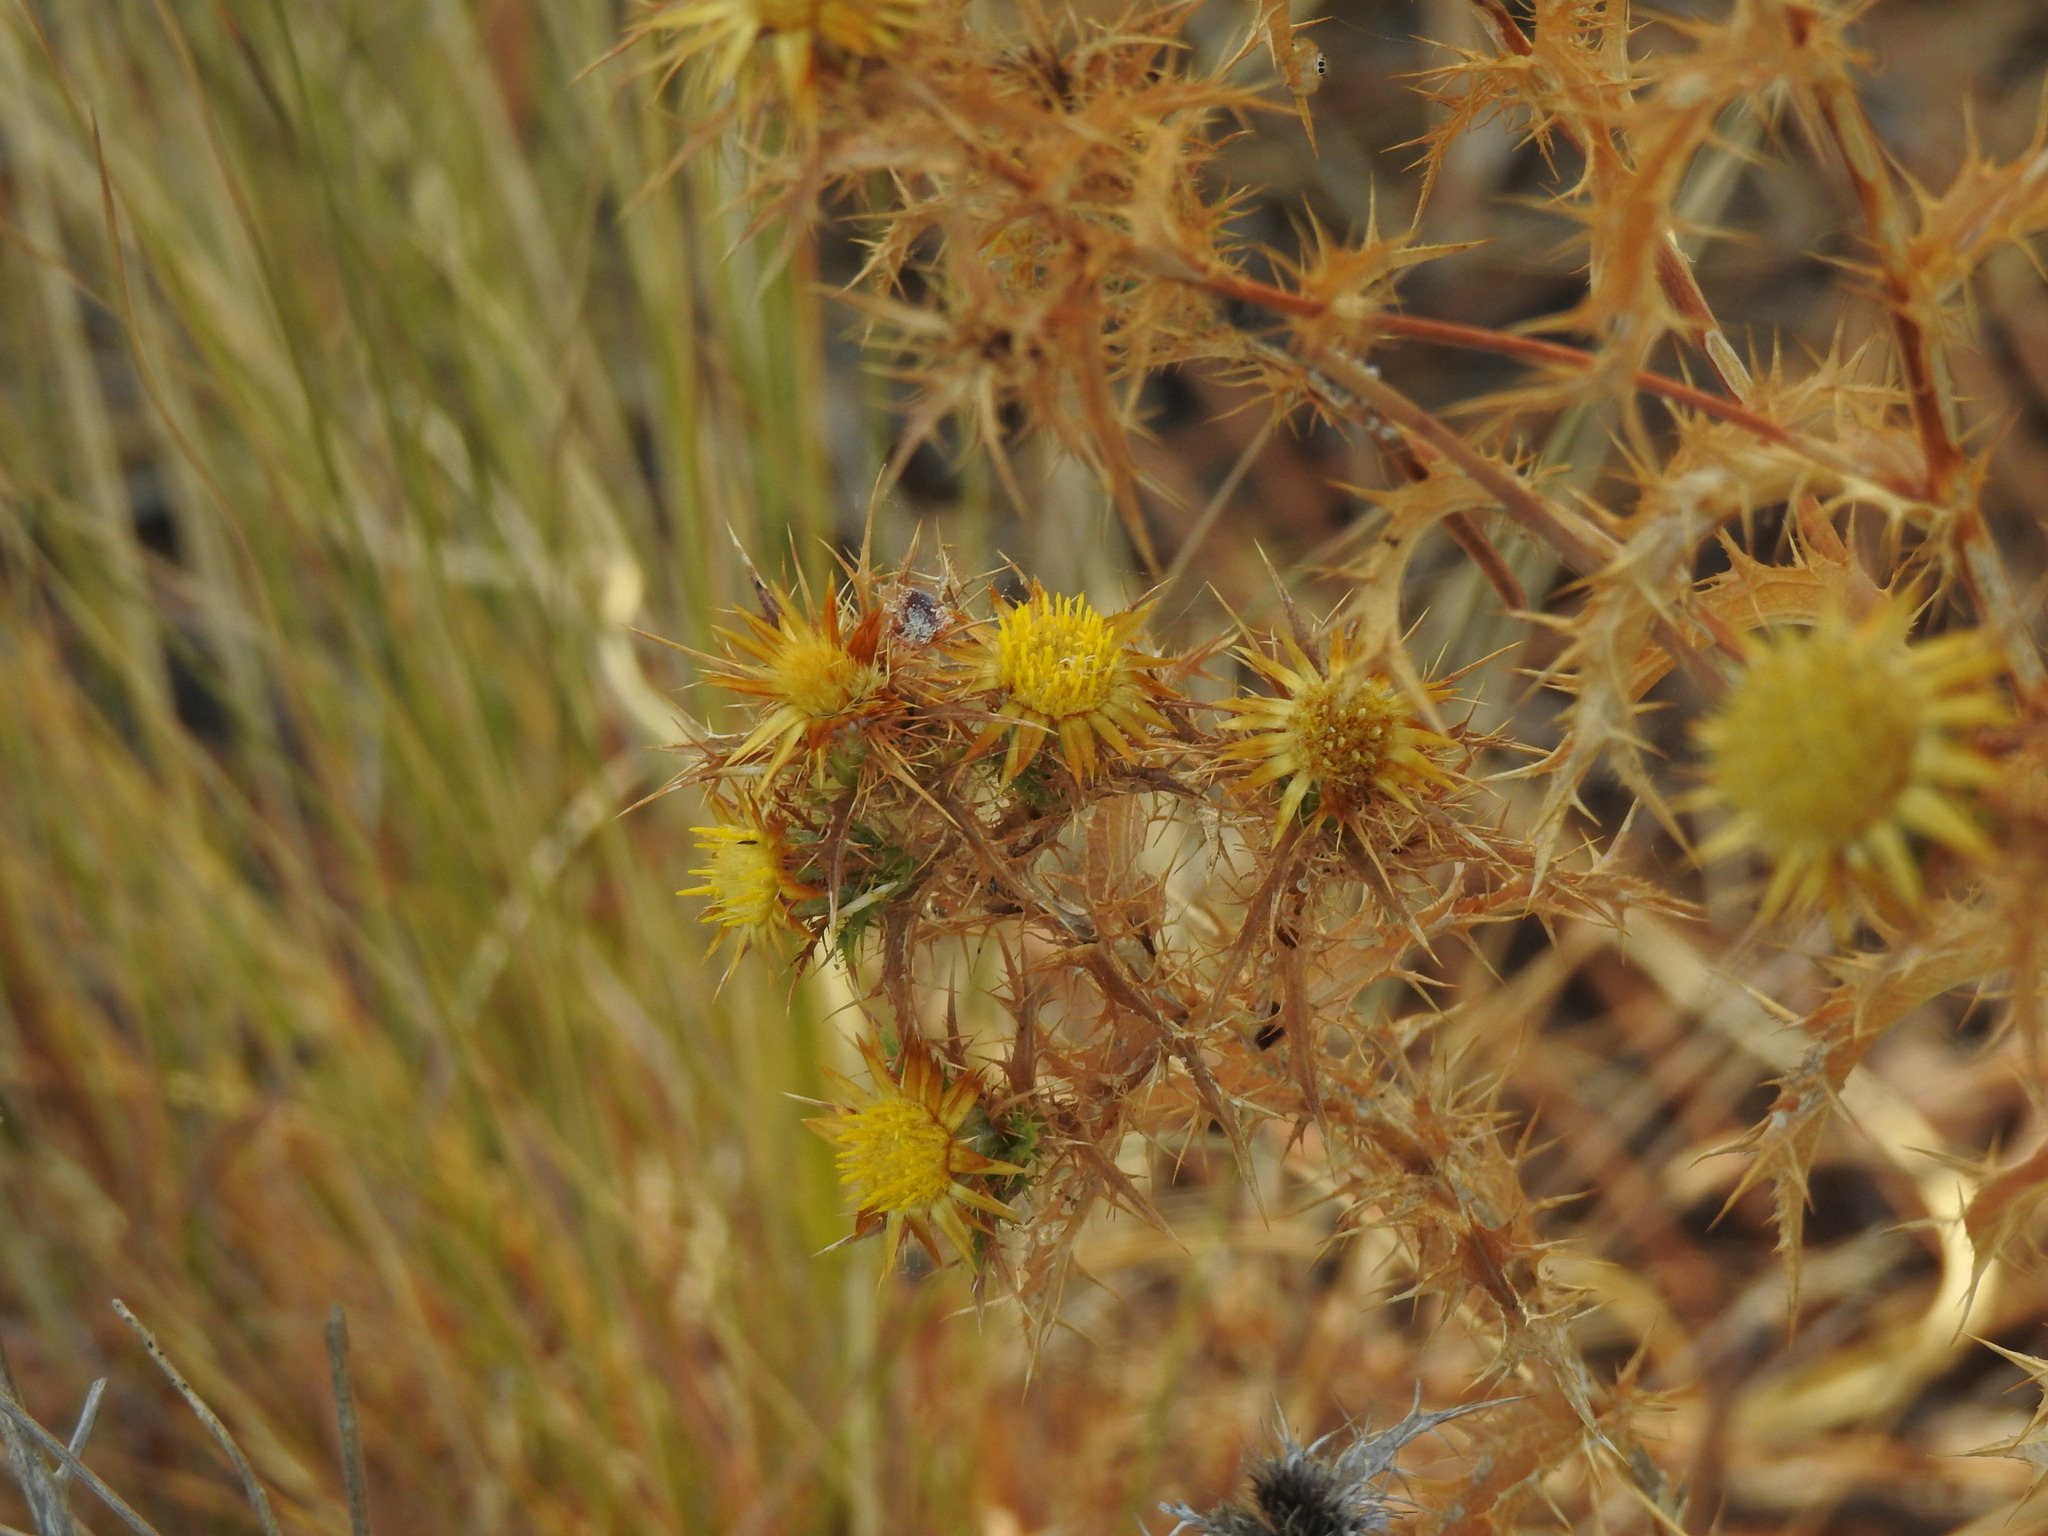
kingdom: Plantae
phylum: Tracheophyta
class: Magnoliopsida
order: Asterales
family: Asteraceae
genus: Carlina
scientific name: Carlina hispanica
